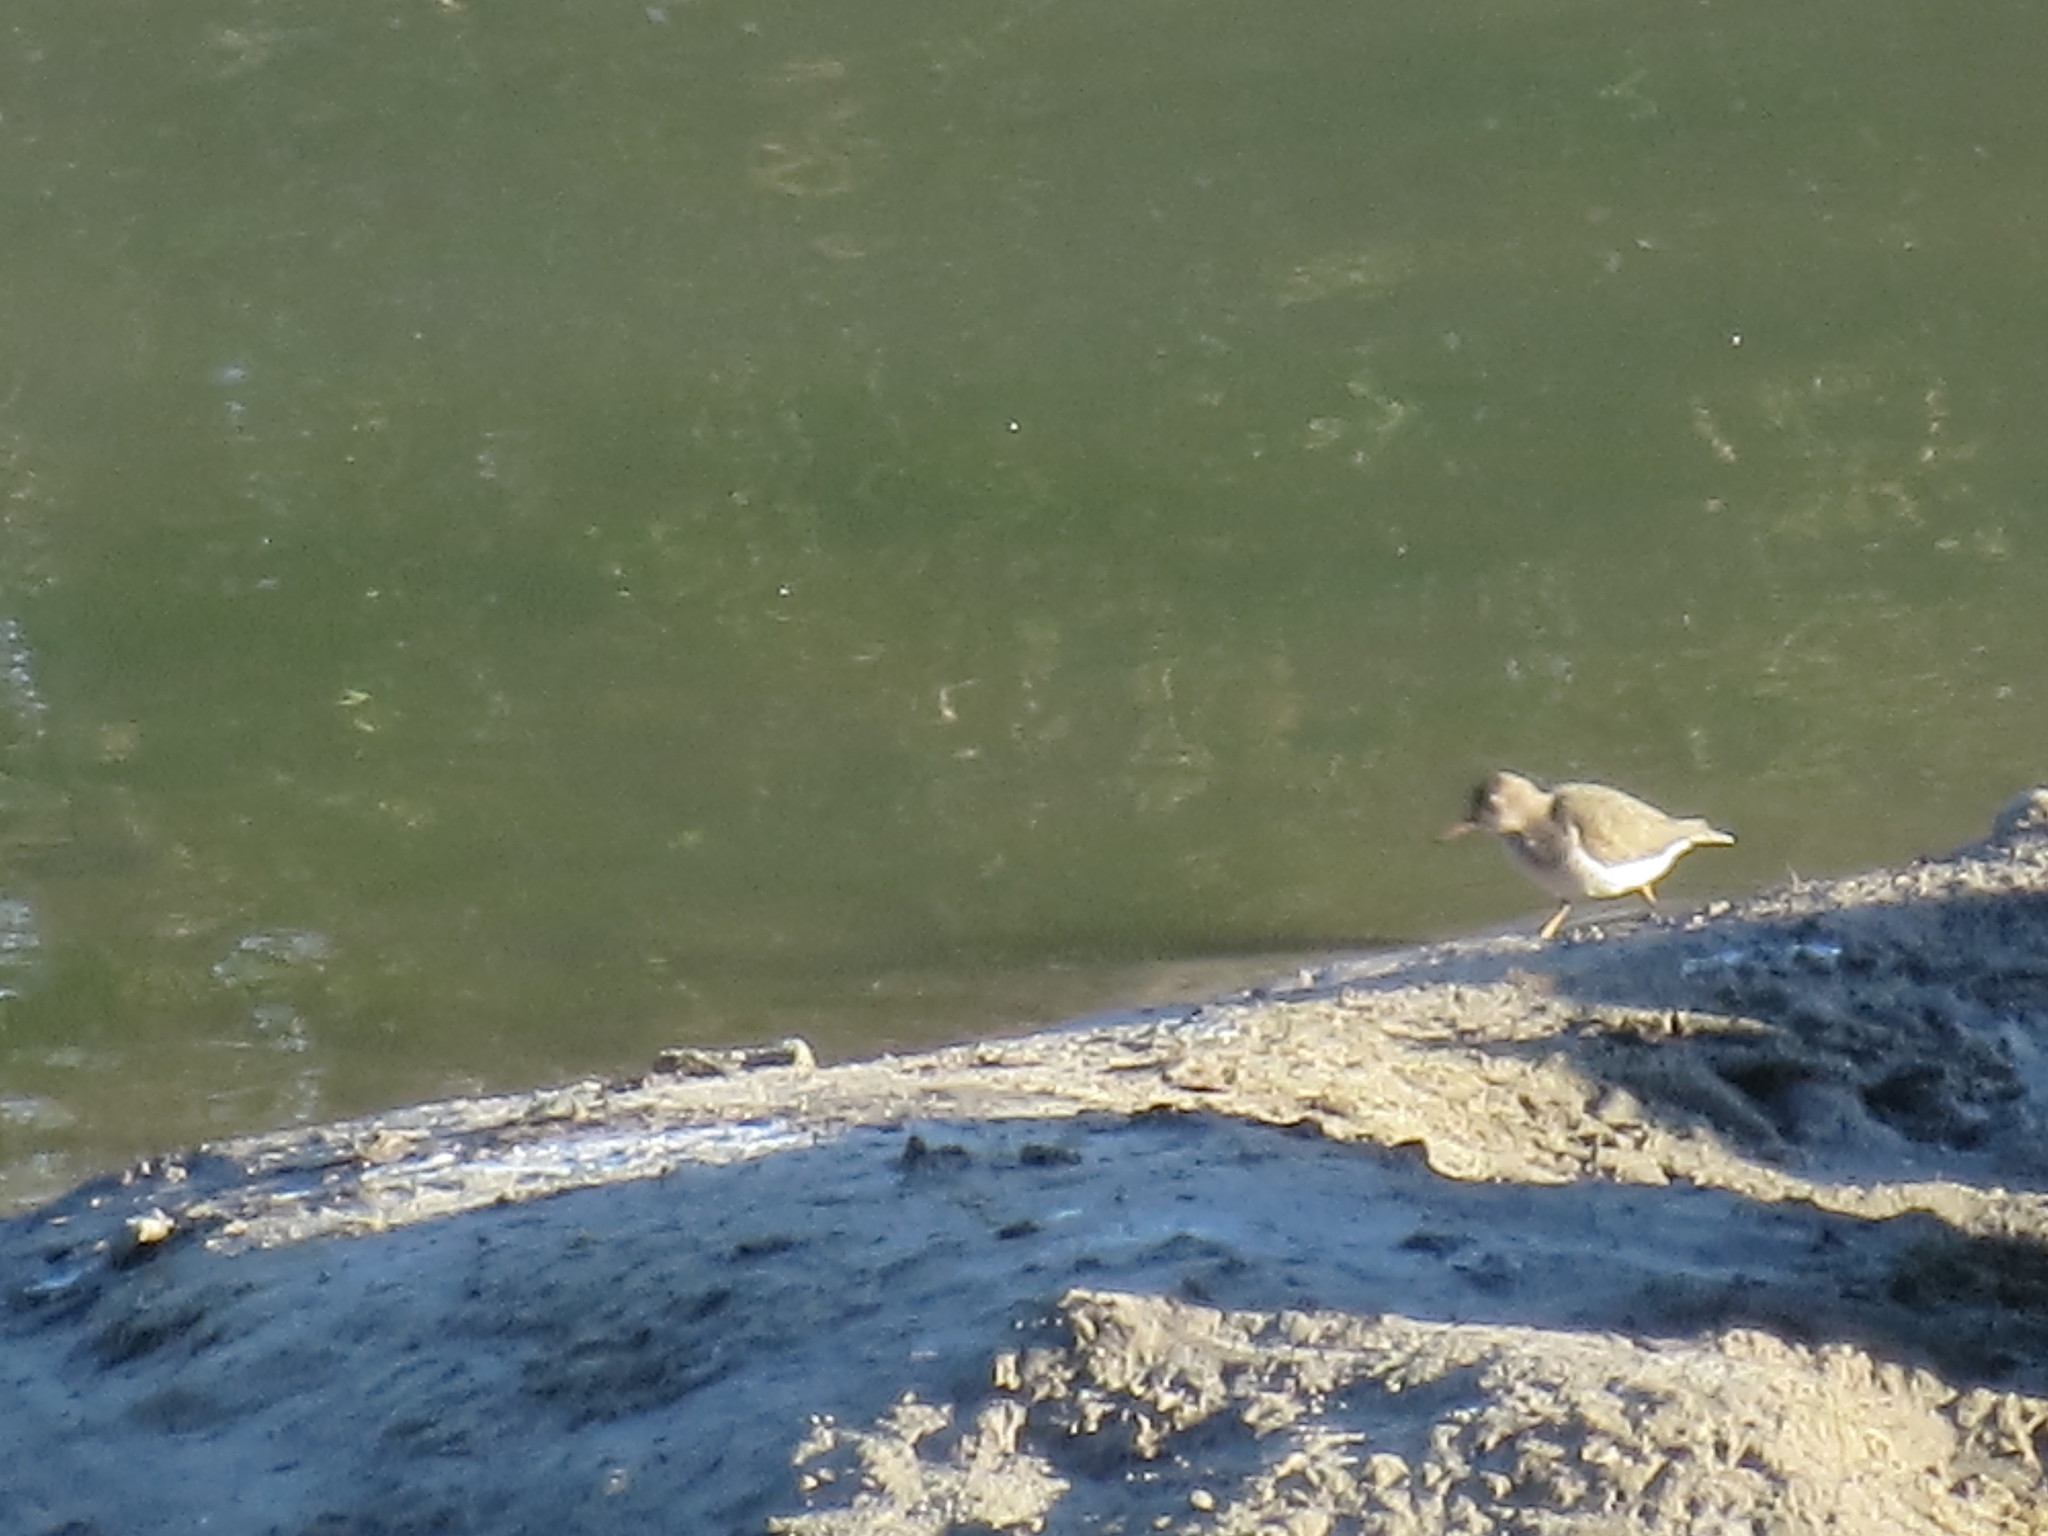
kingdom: Animalia
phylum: Chordata
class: Aves
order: Charadriiformes
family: Scolopacidae
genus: Actitis
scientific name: Actitis macularius
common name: Spotted sandpiper
